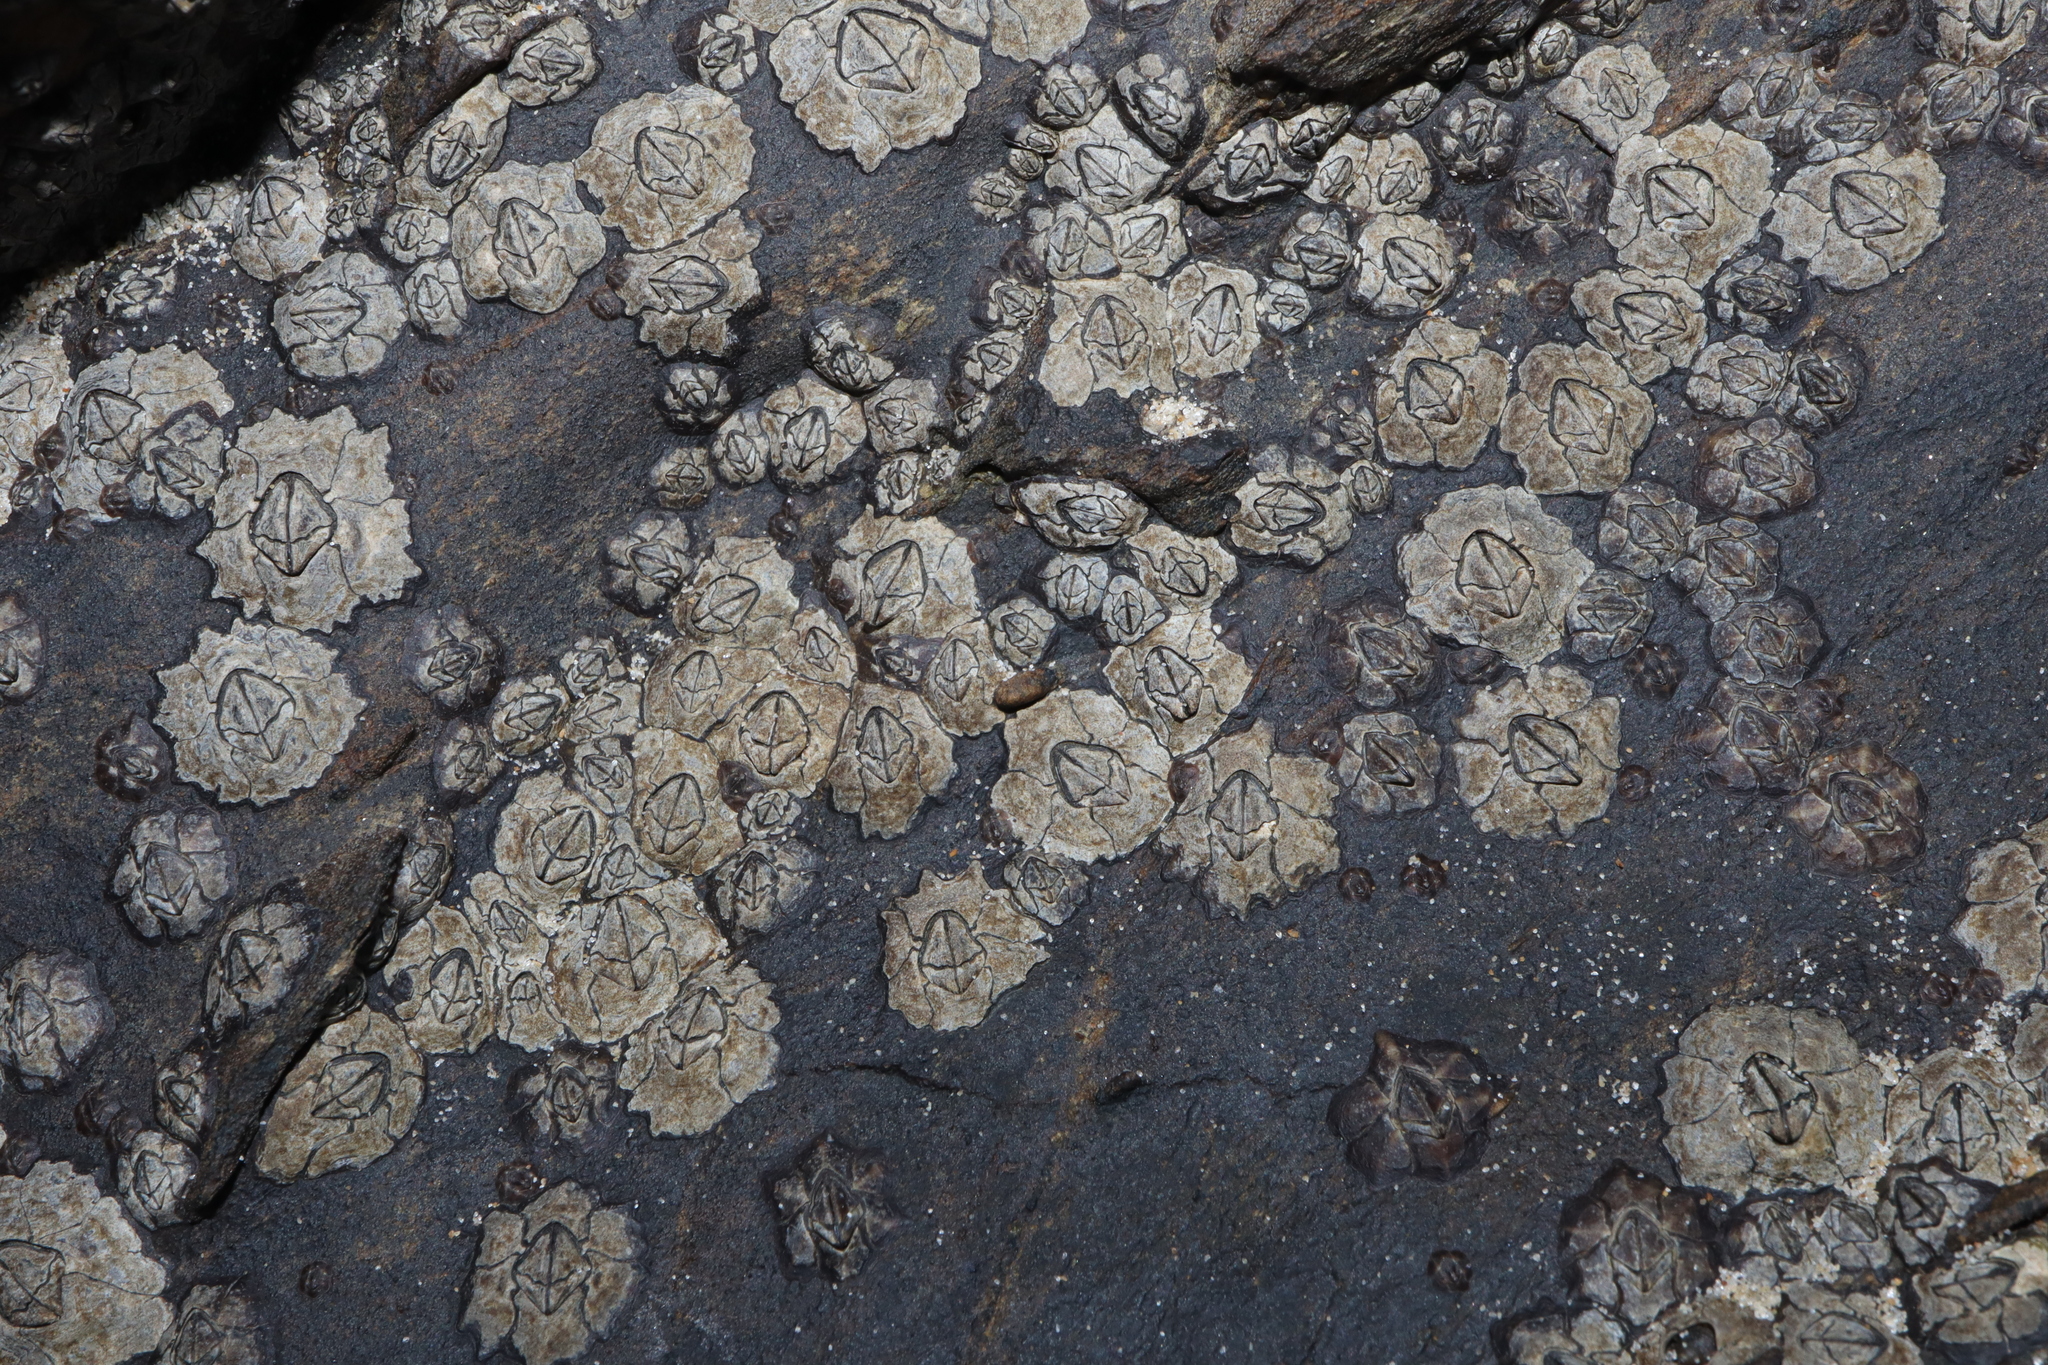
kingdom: Animalia
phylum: Arthropoda
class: Maxillopoda
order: Sessilia
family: Chthamalidae
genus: Microeuraphia
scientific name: Microeuraphia withersi
